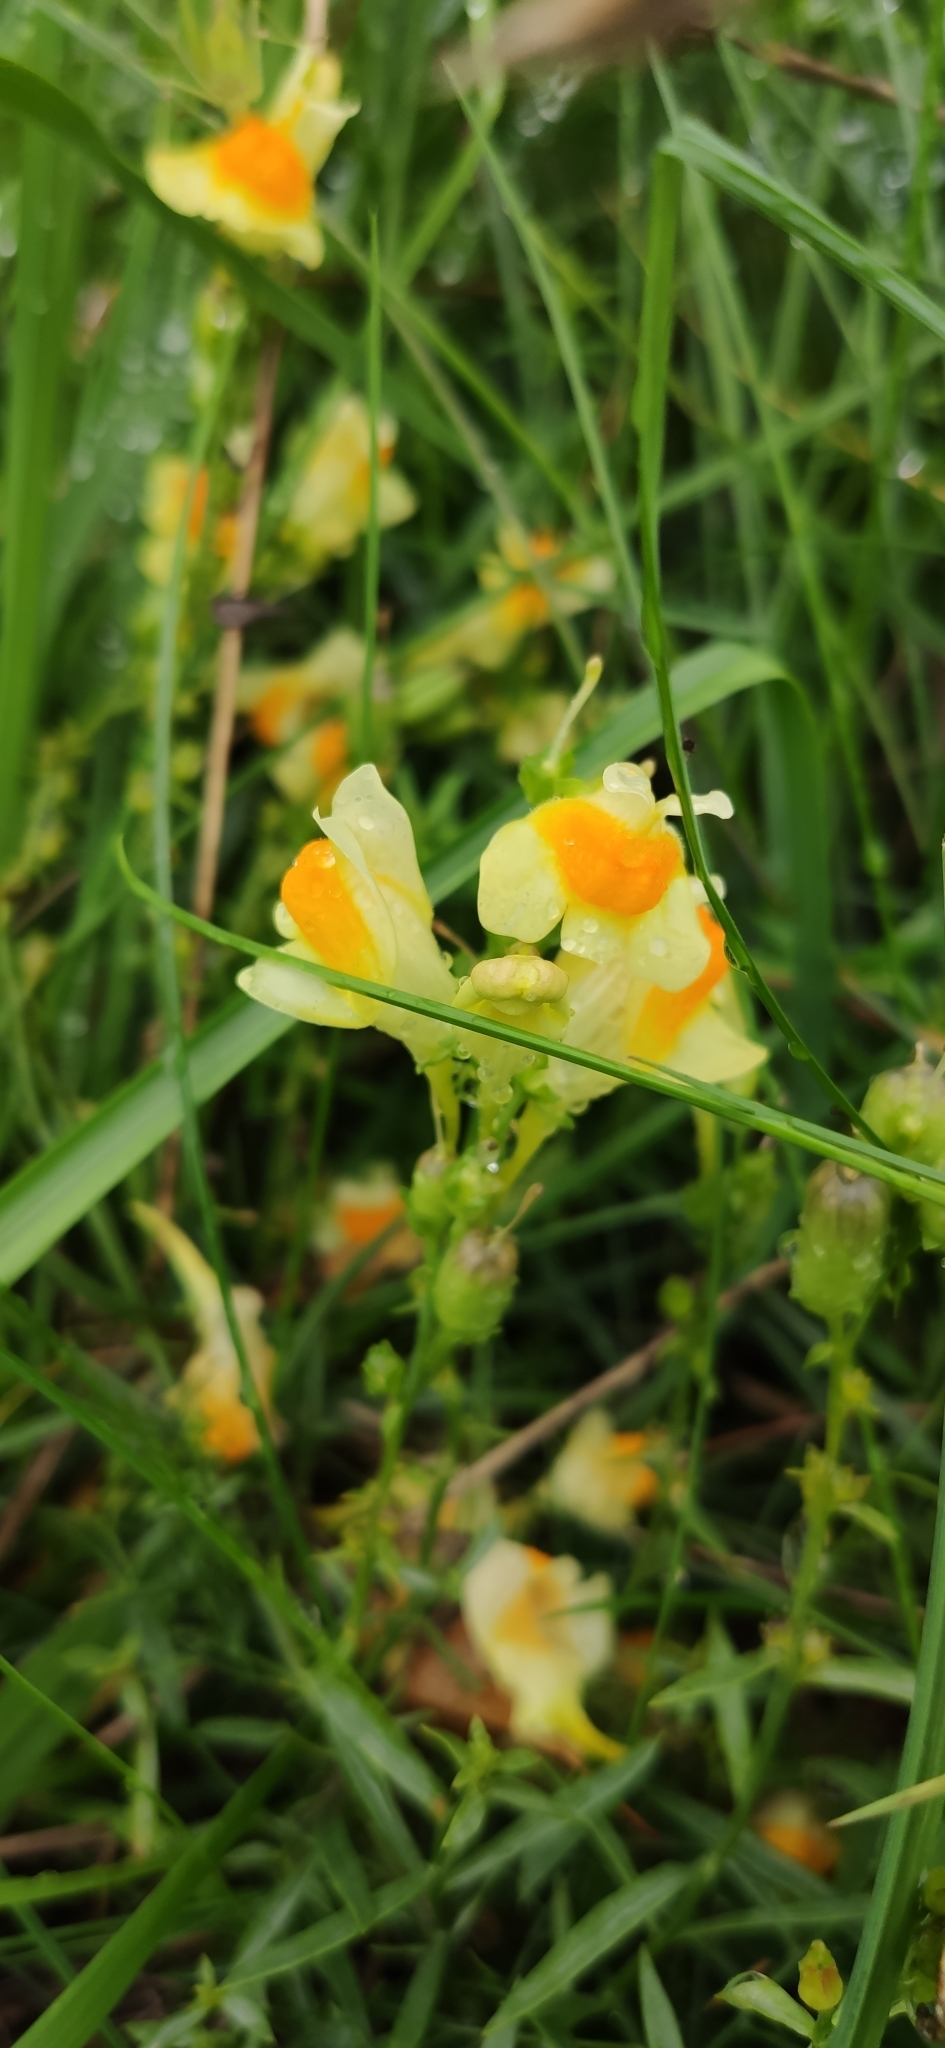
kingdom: Plantae
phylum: Tracheophyta
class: Magnoliopsida
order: Lamiales
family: Plantaginaceae
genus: Linaria
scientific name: Linaria vulgaris
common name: Butter and eggs
